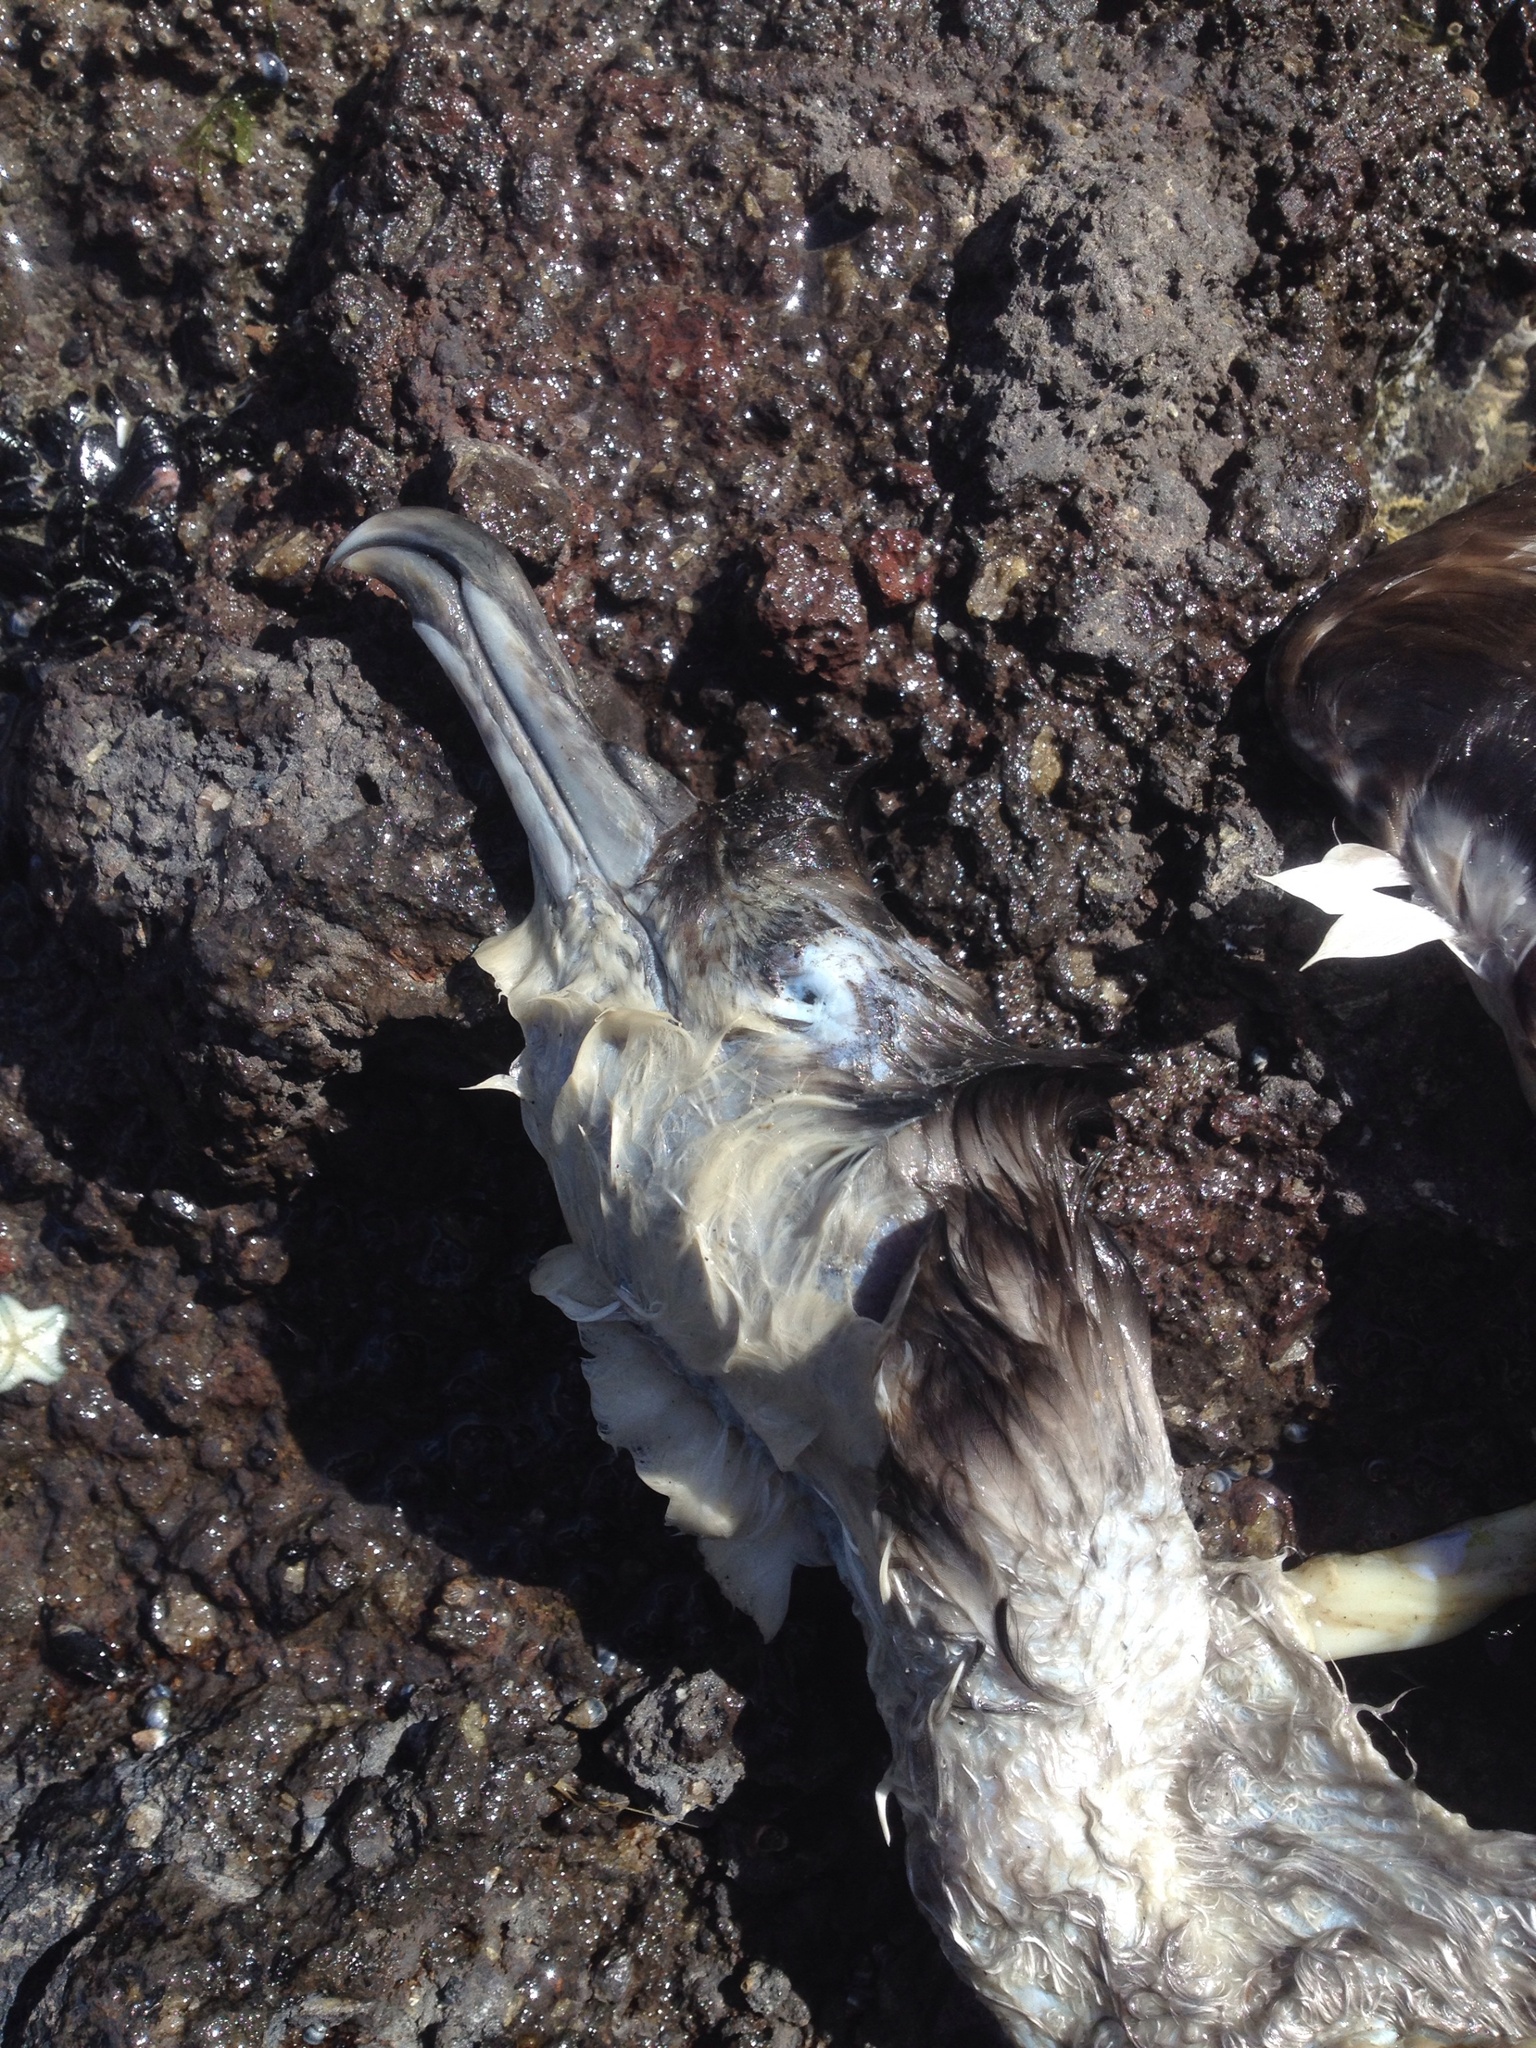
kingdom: Animalia
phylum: Chordata
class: Aves
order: Suliformes
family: Phalacrocoracidae
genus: Phalacrocorax
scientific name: Phalacrocorax punctatus
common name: Spotted shag
